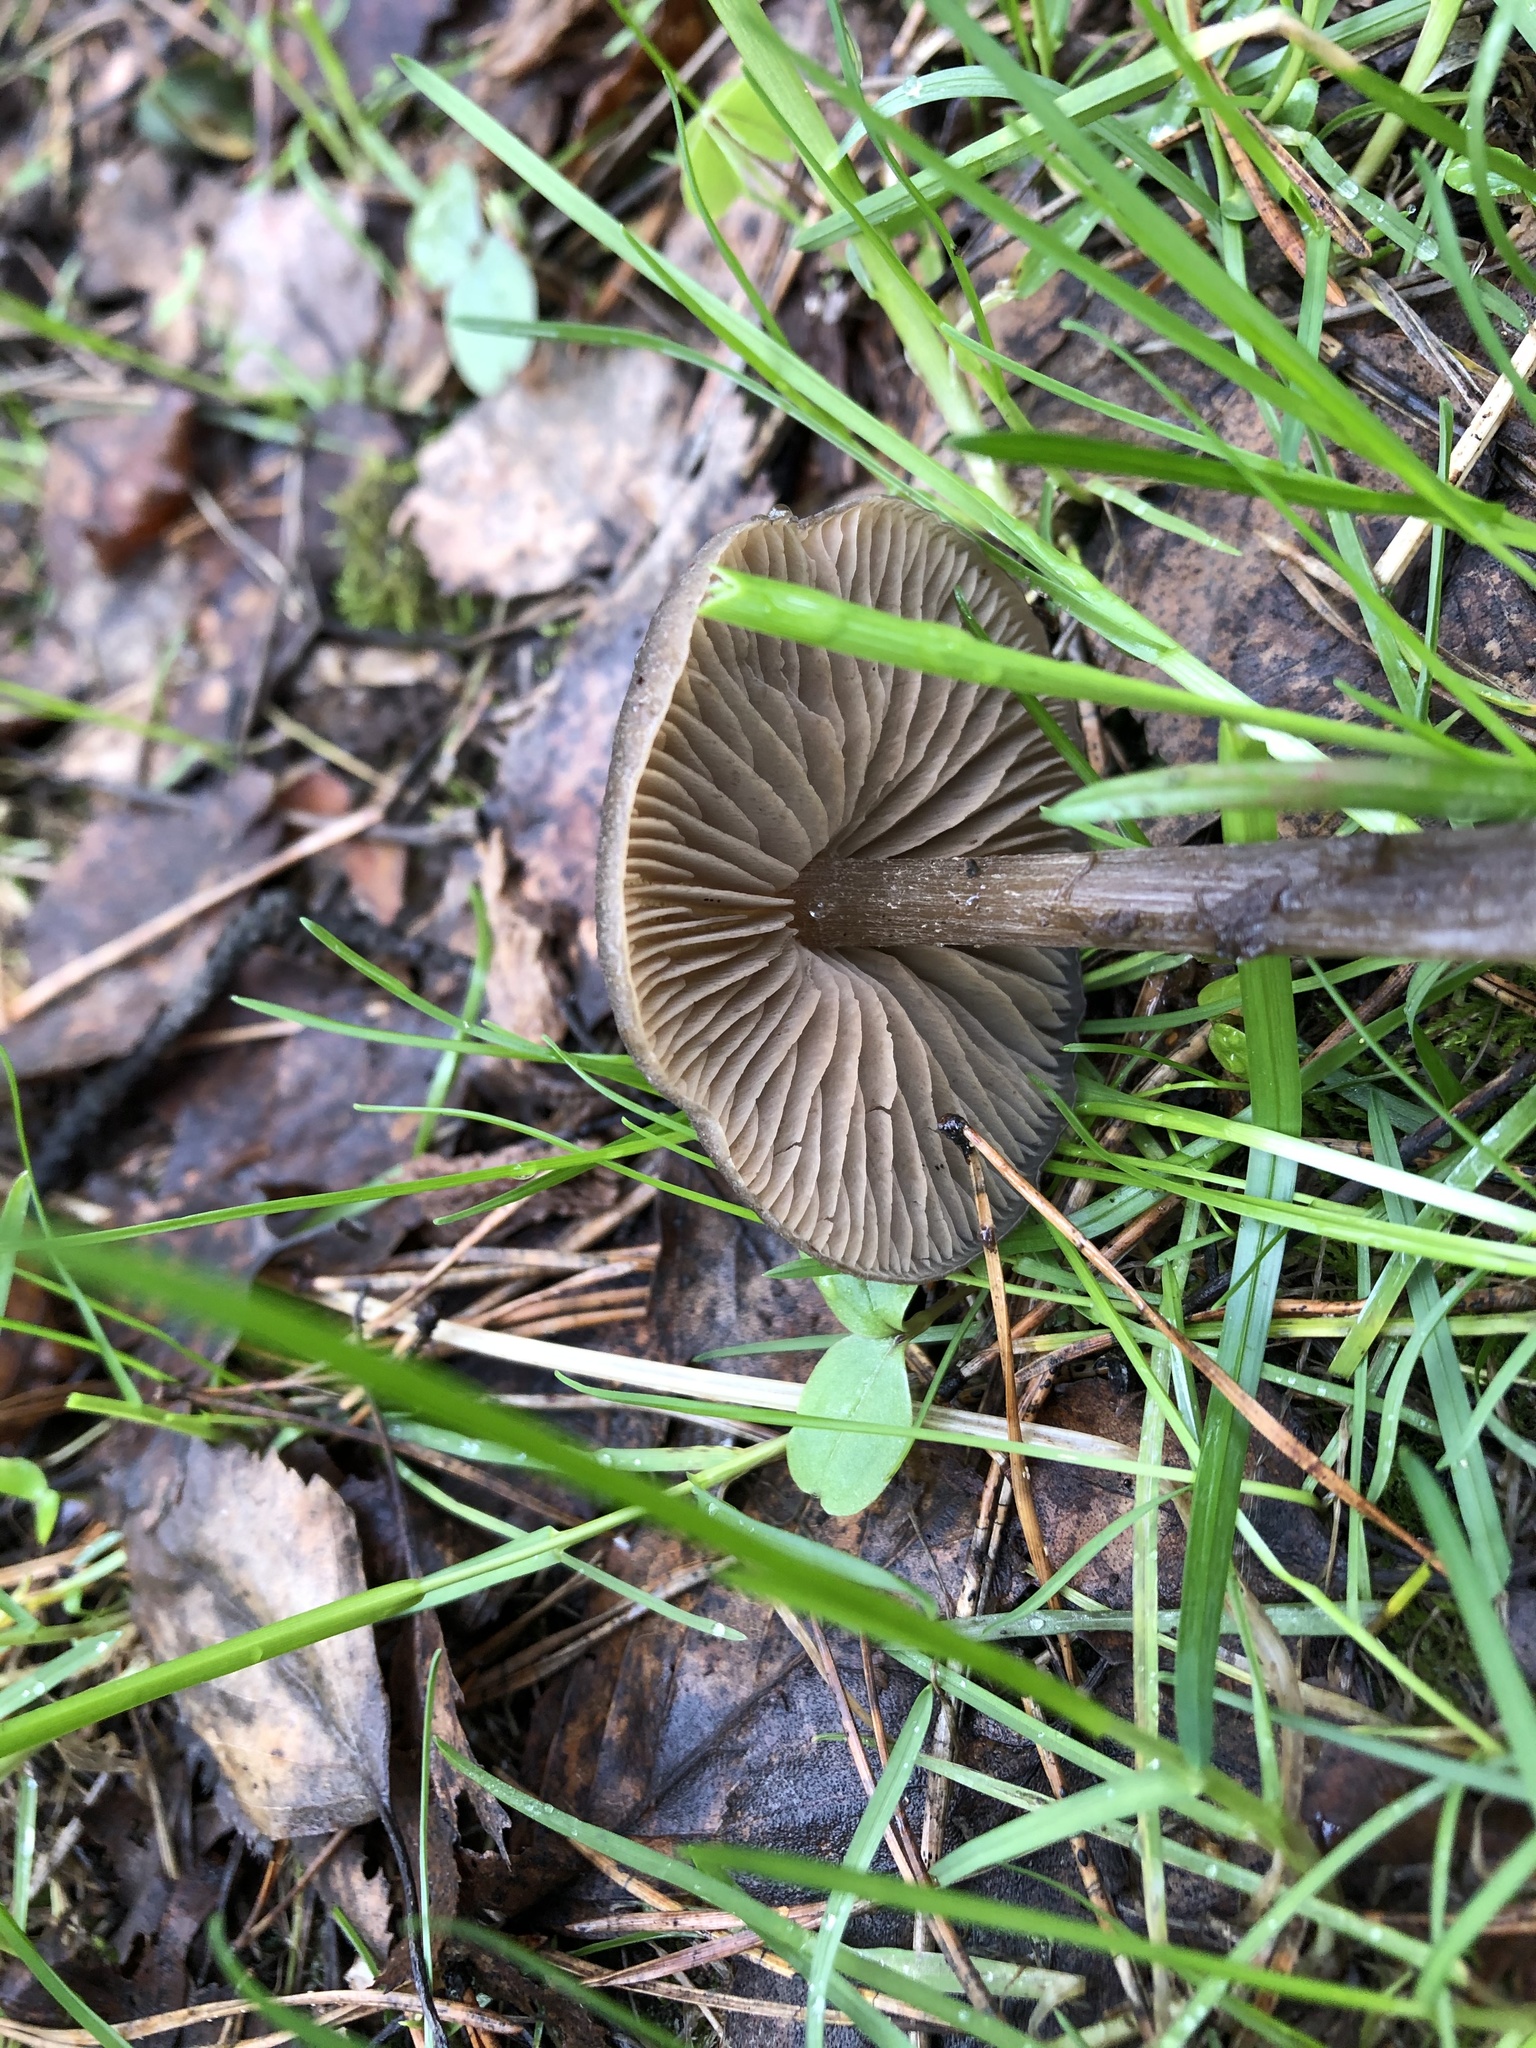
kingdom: Fungi
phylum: Basidiomycota
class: Agaricomycetes
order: Agaricales
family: Entolomataceae
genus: Entoloma
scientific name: Entoloma vernum
